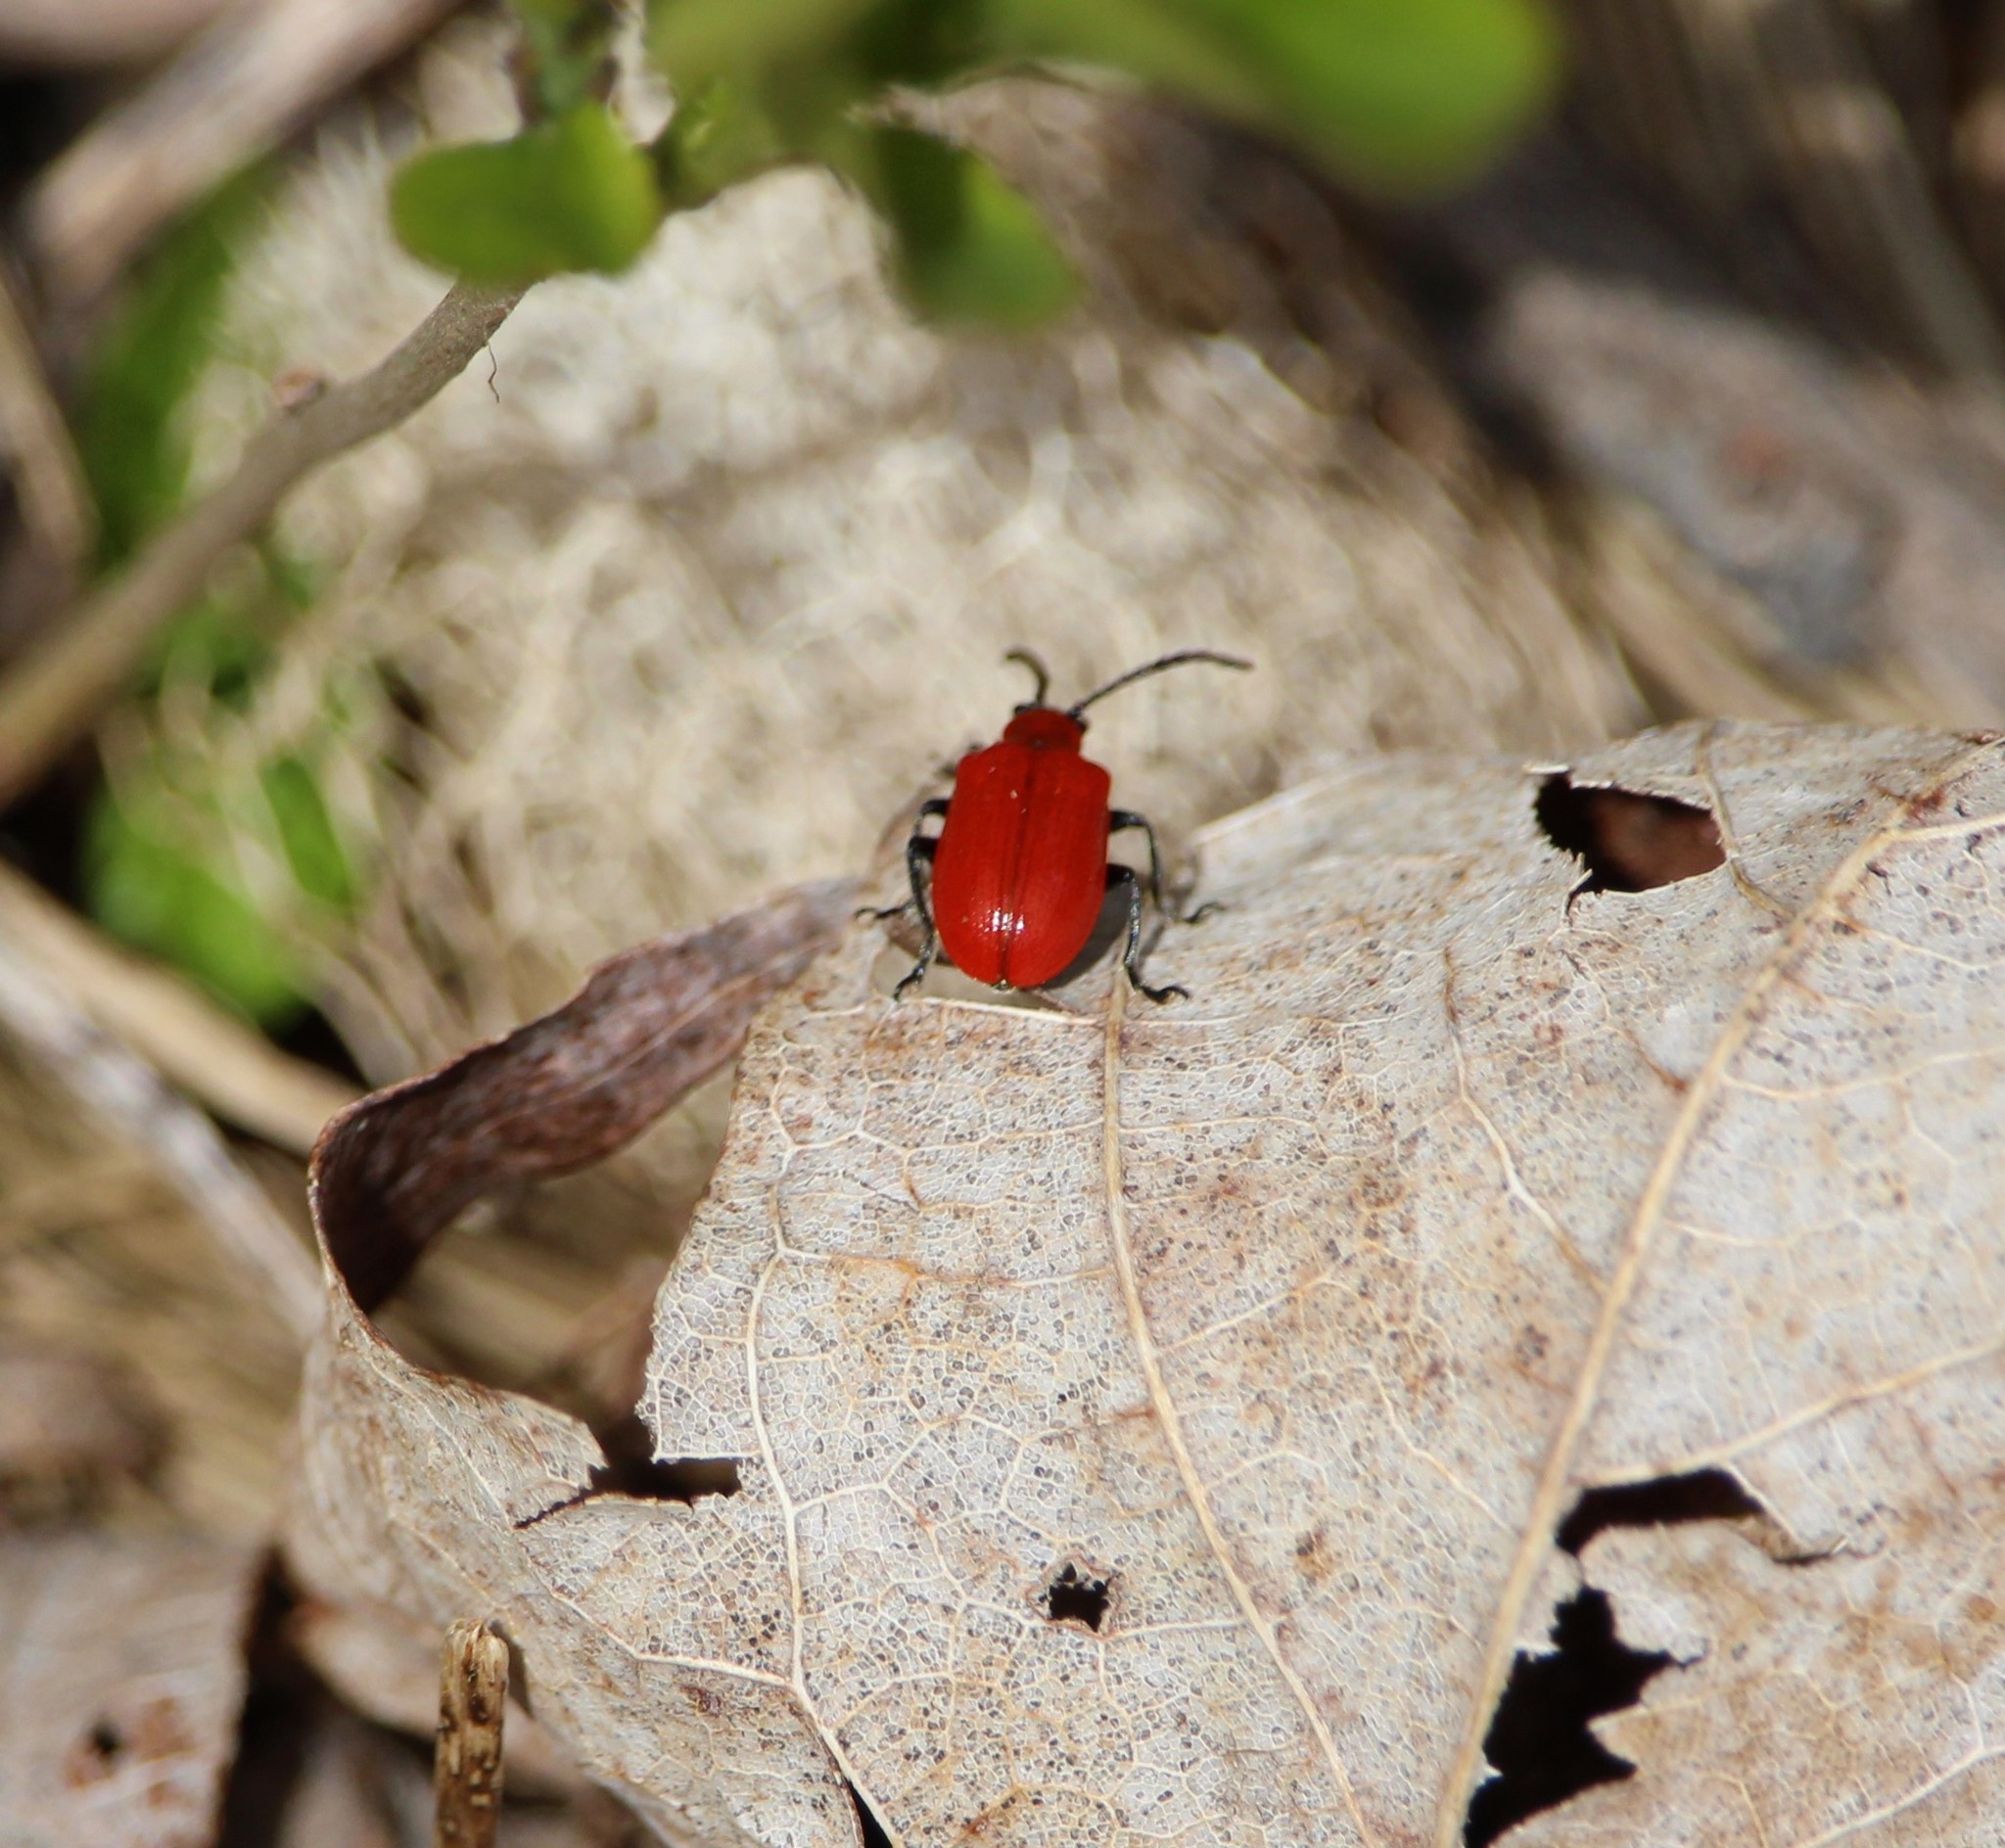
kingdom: Animalia
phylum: Arthropoda
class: Insecta
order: Coleoptera
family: Chrysomelidae
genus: Lilioceris
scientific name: Lilioceris lilii
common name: Lily beetle
